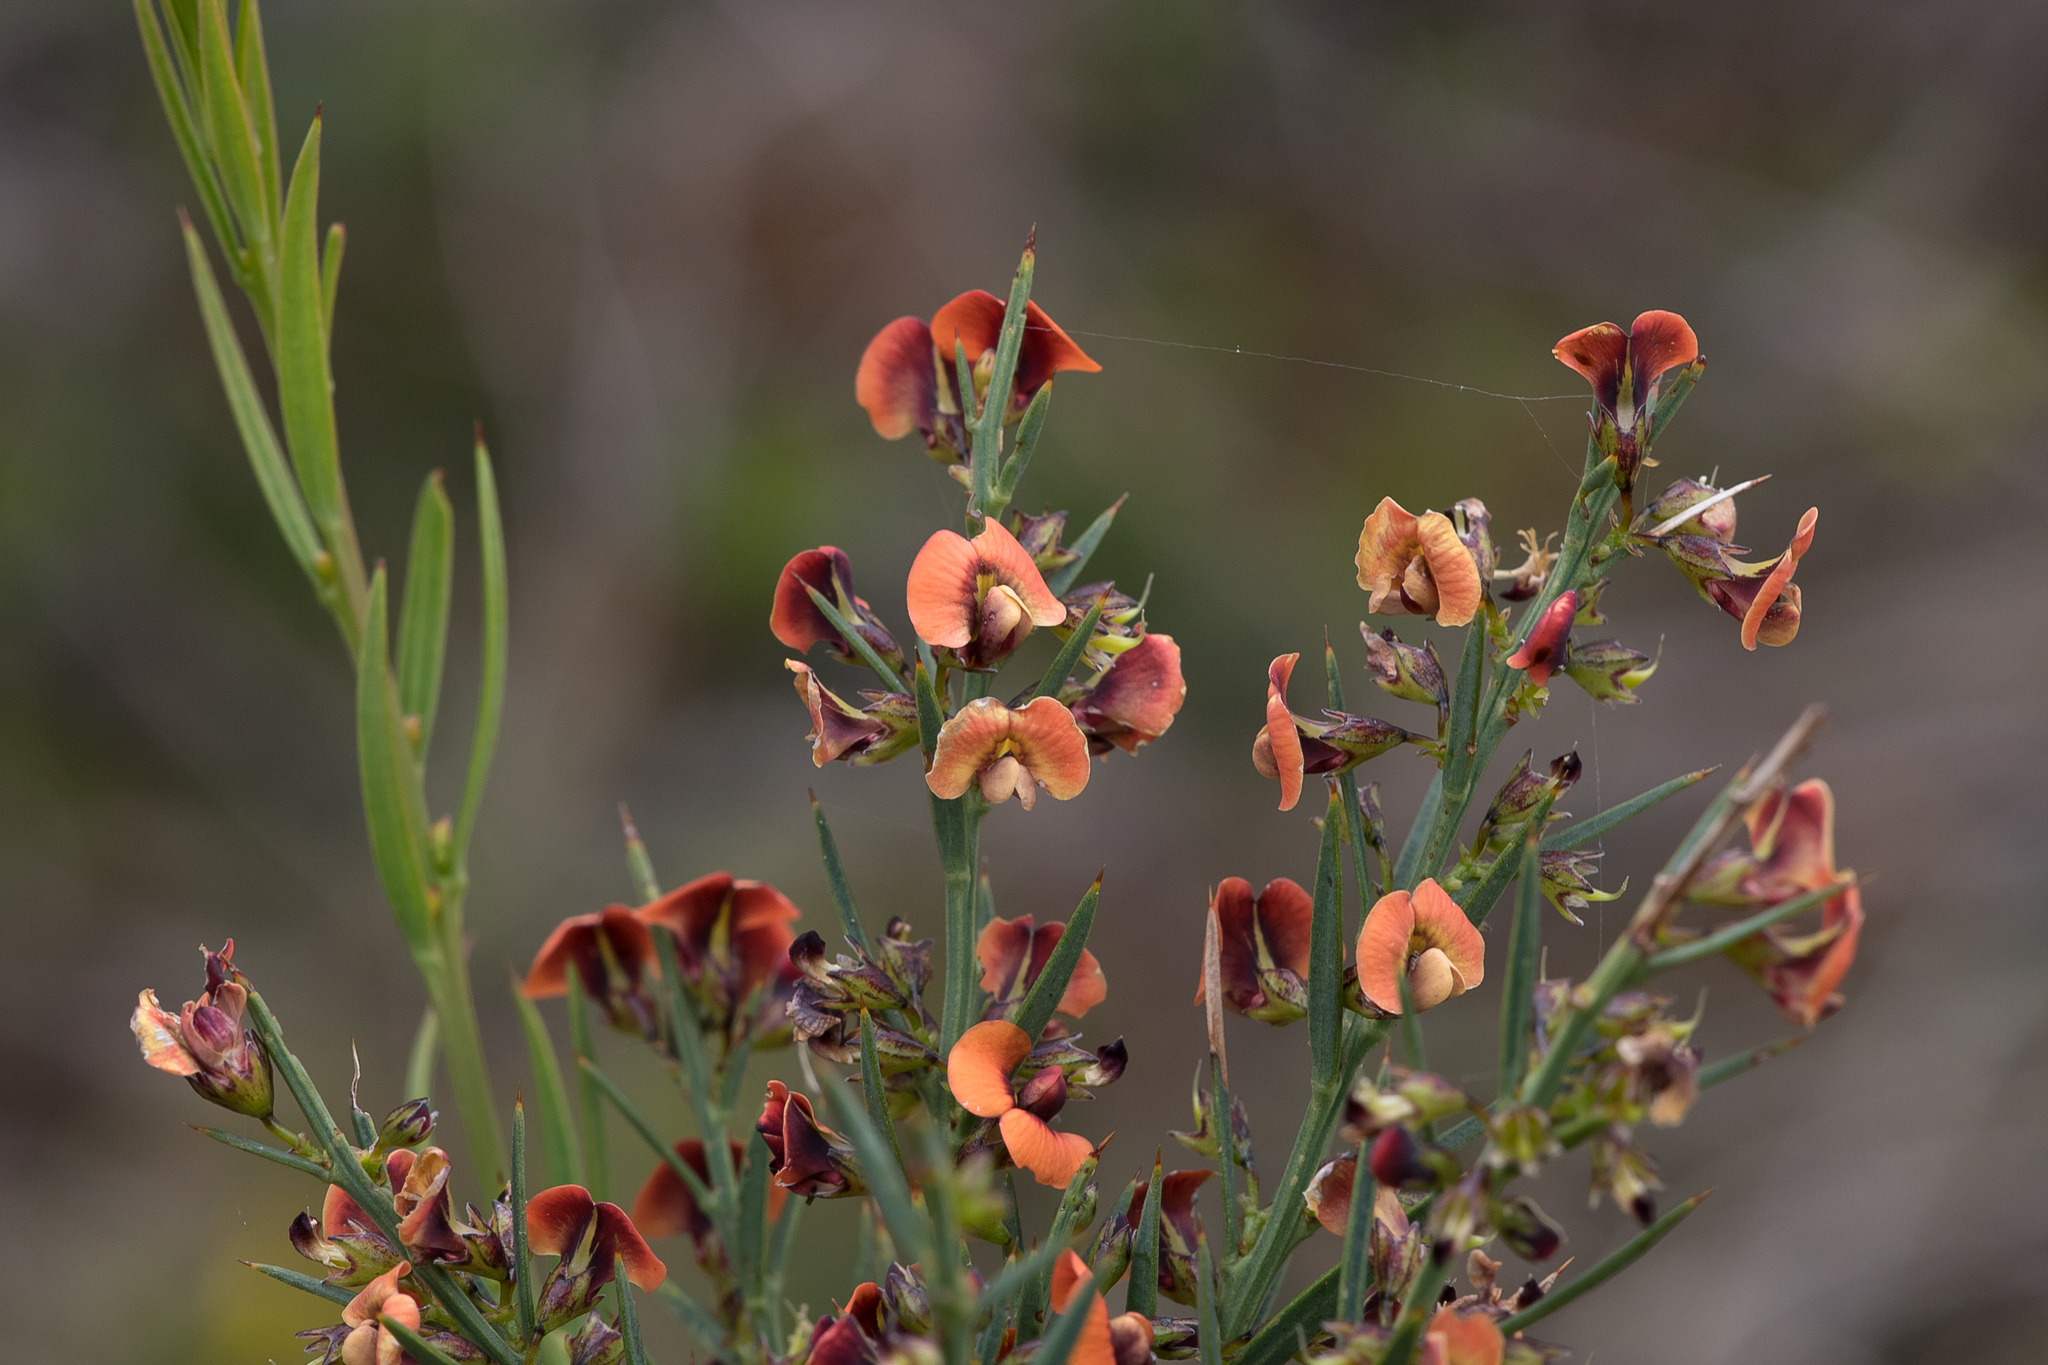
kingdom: Plantae
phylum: Tracheophyta
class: Magnoliopsida
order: Fabales
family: Fabaceae
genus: Daviesia
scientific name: Daviesia ulicifolia
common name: Gorse bitter-pea
